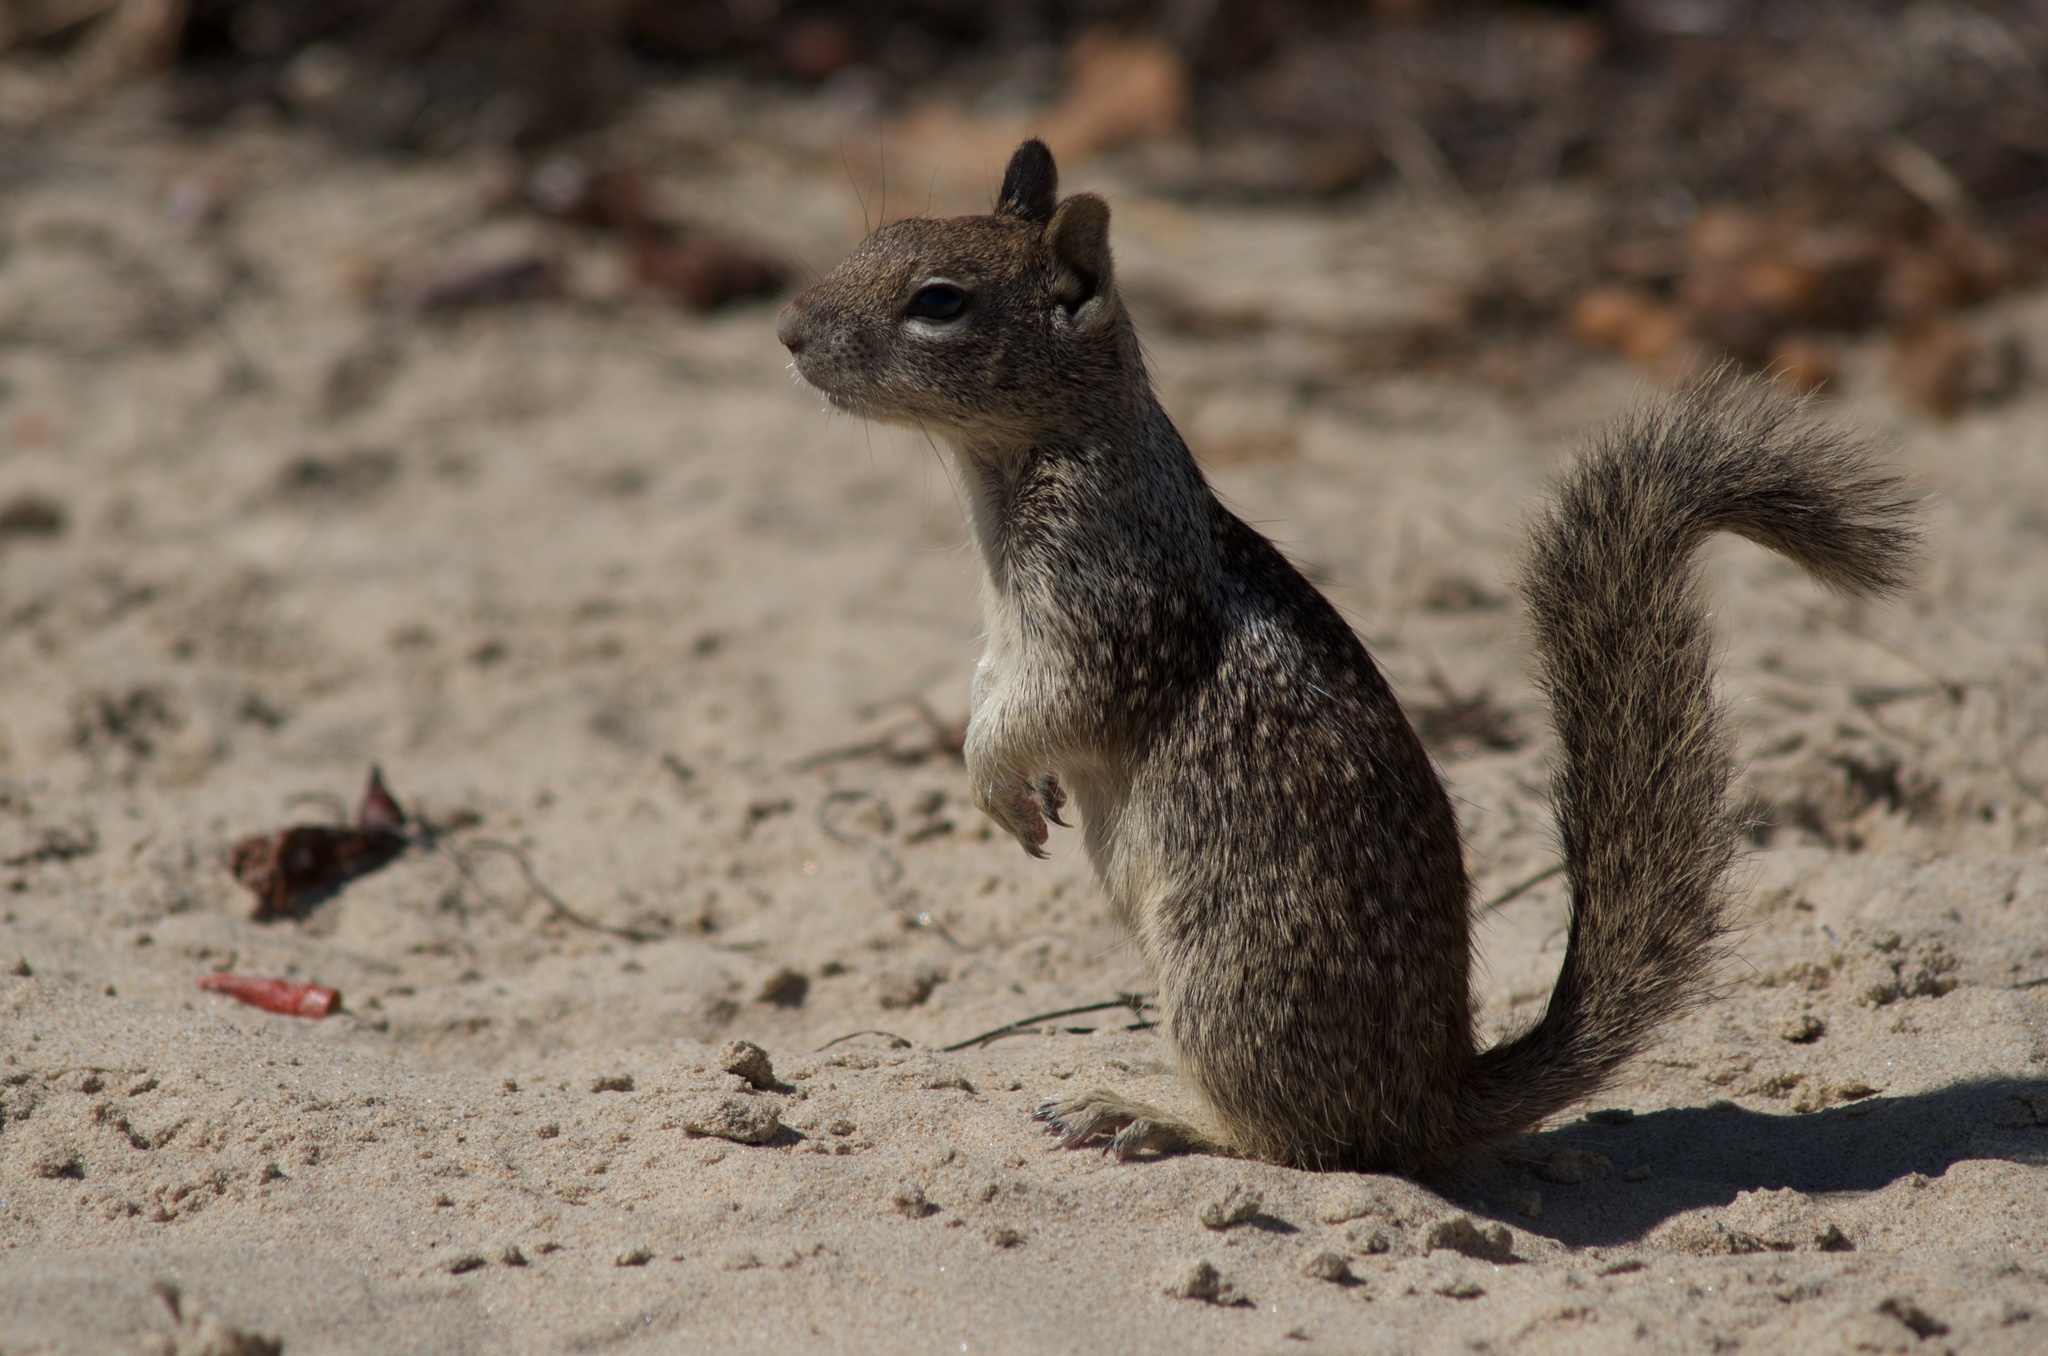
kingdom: Animalia
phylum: Chordata
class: Mammalia
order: Rodentia
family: Sciuridae
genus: Otospermophilus
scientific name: Otospermophilus beecheyi
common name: California ground squirrel
